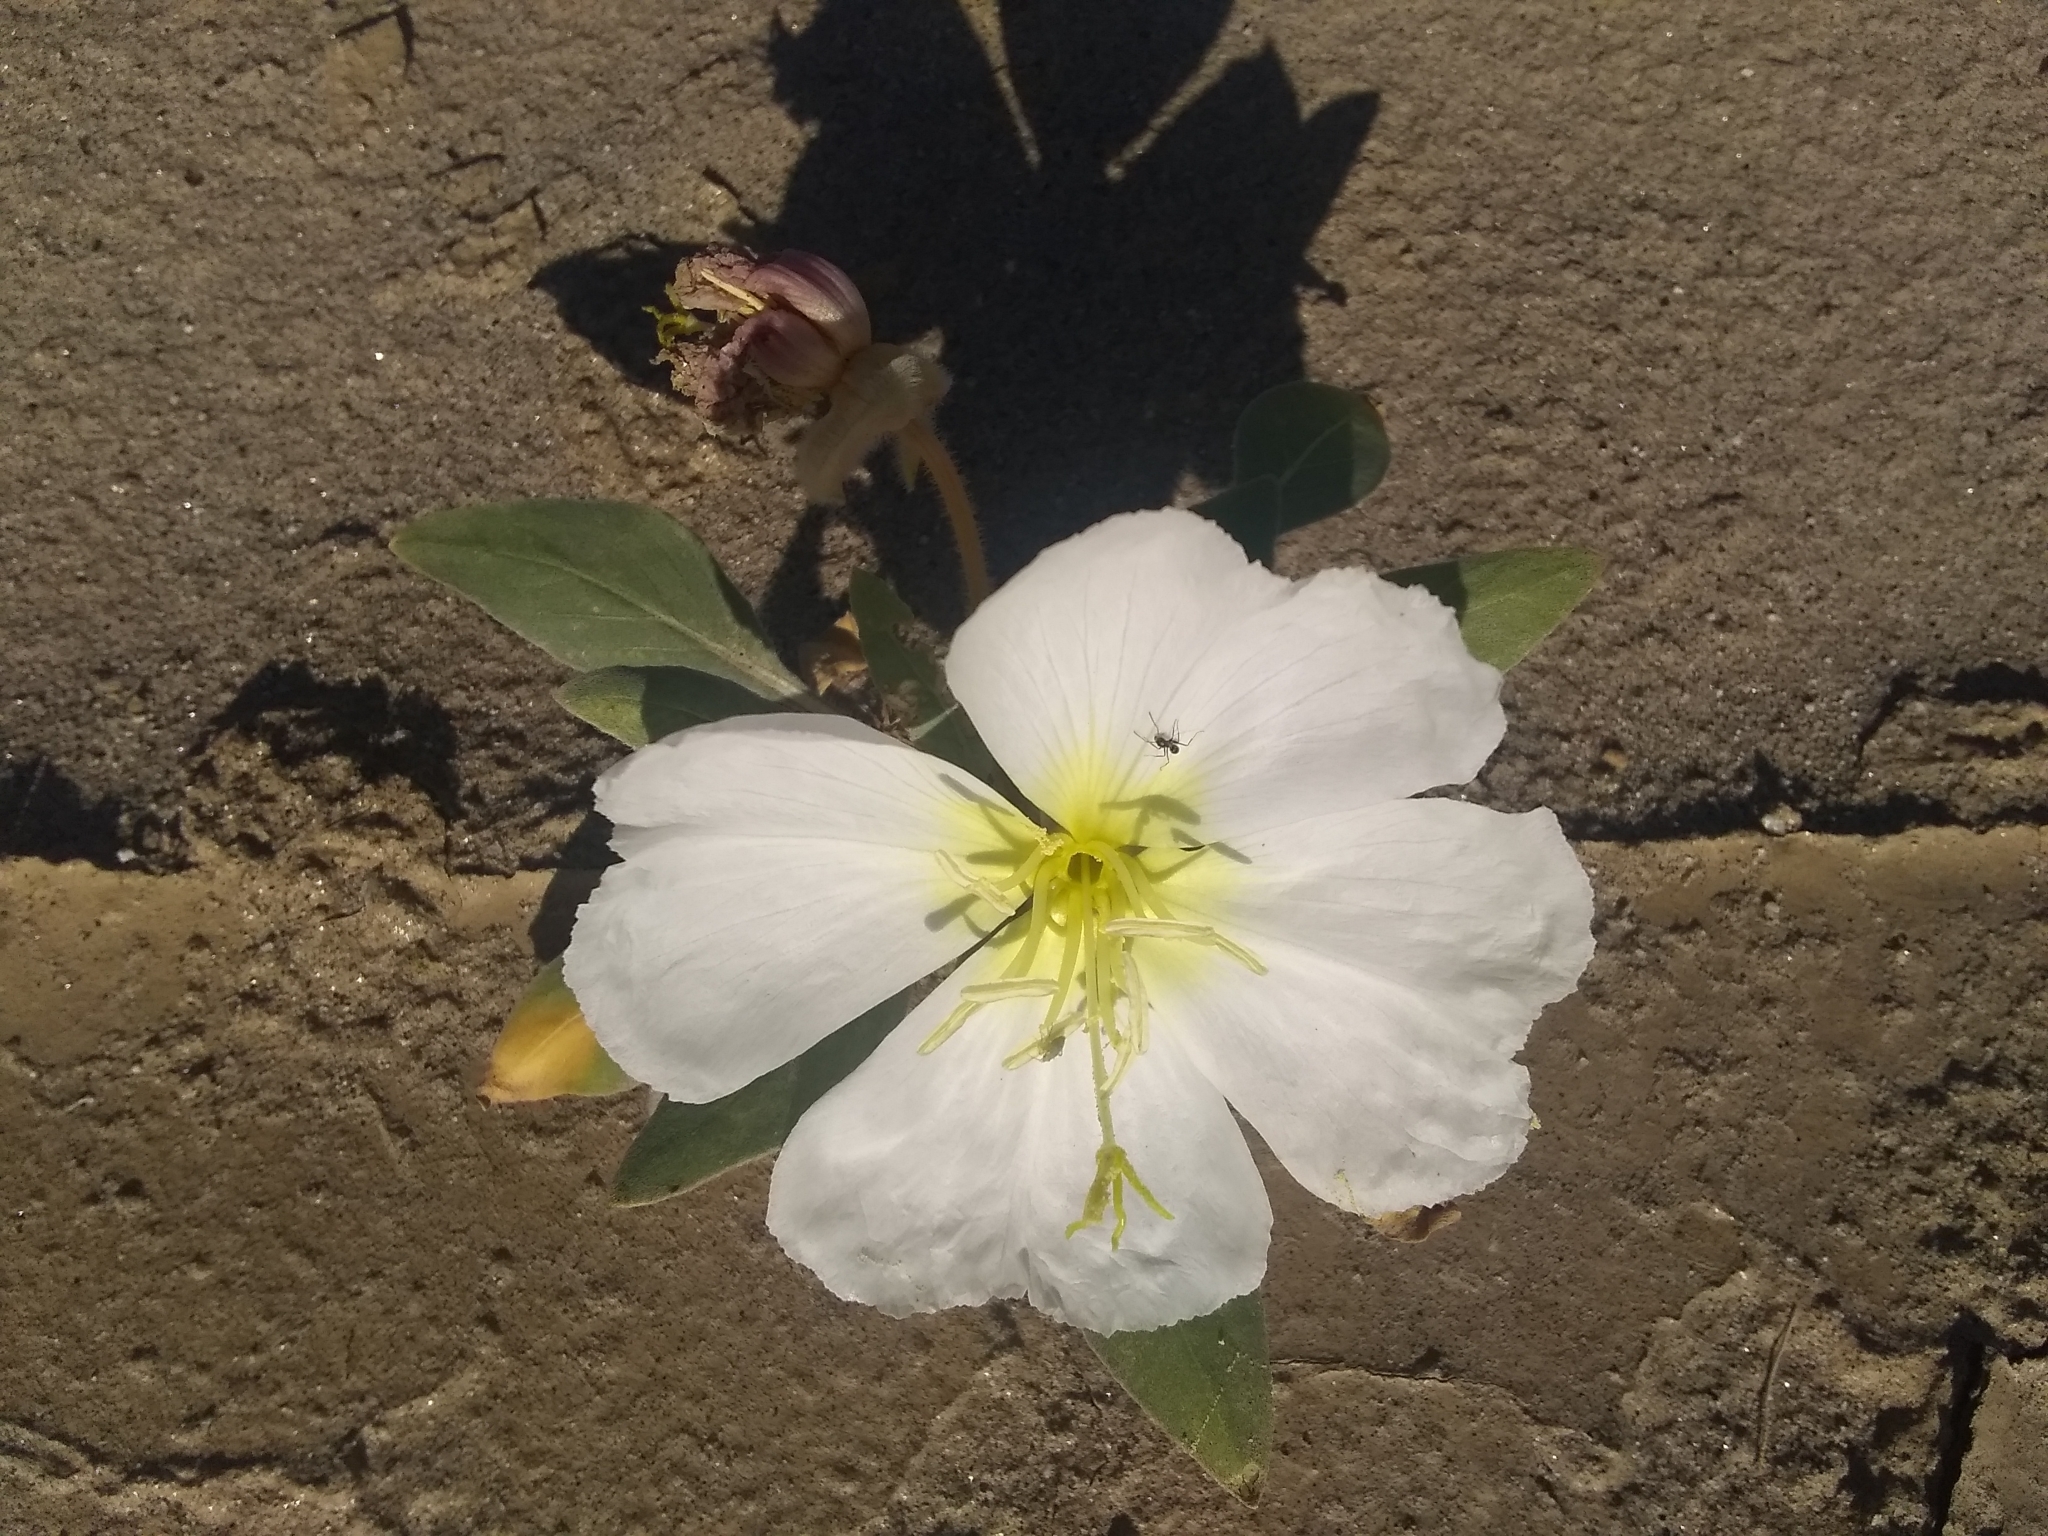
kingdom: Plantae
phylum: Tracheophyta
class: Magnoliopsida
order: Myrtales
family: Onagraceae
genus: Oenothera
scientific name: Oenothera deltoides
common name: Basket evening-primrose
